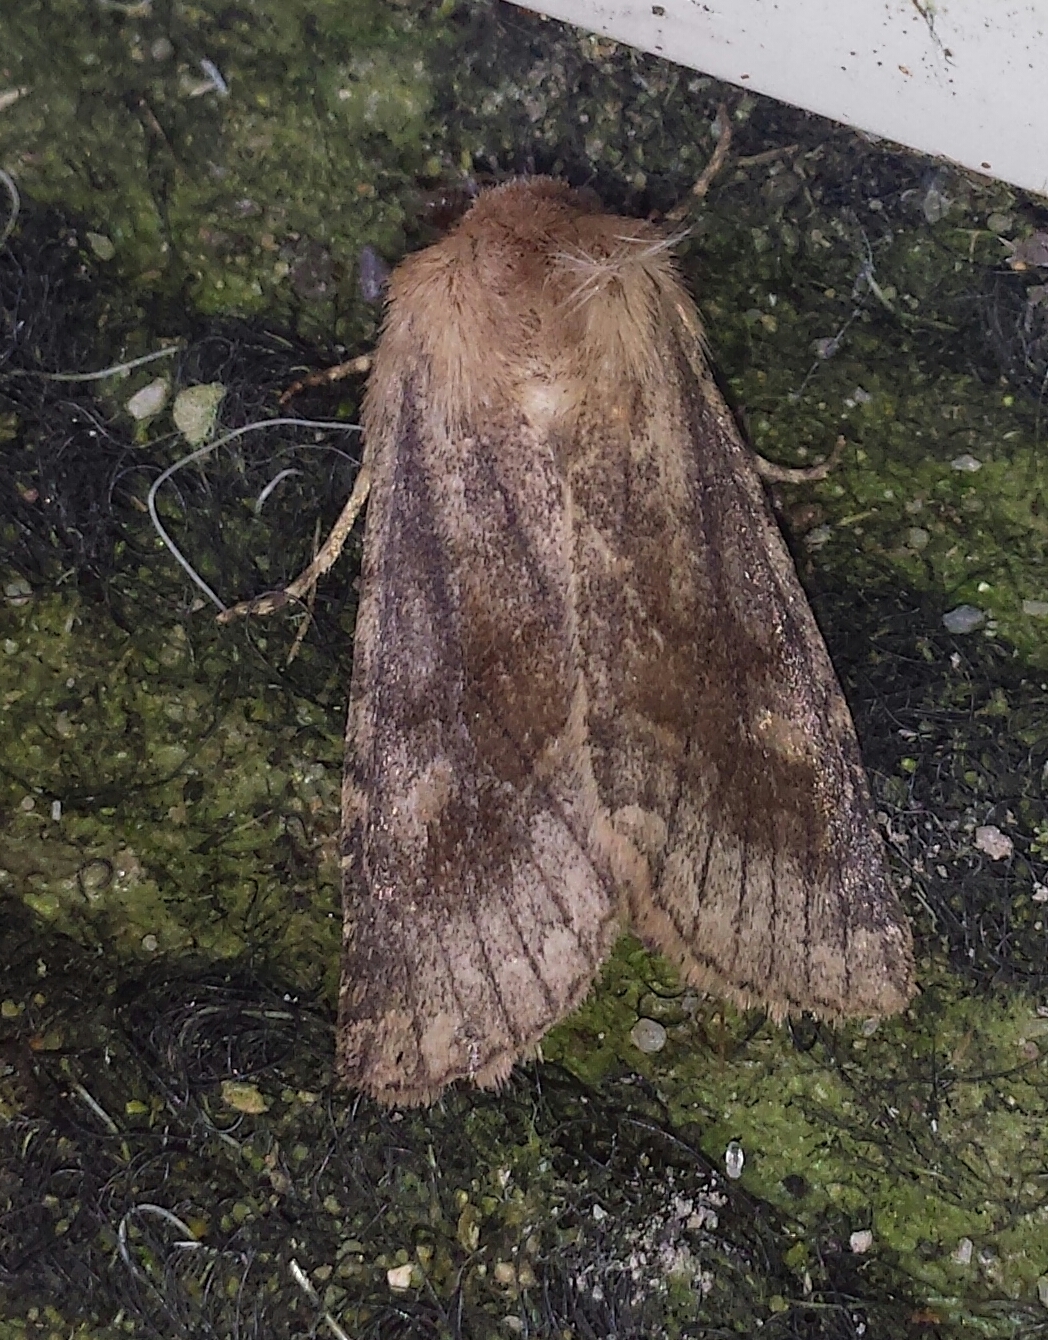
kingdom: Animalia
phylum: Arthropoda
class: Insecta
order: Lepidoptera
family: Noctuidae
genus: Nephelodes
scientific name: Nephelodes minians
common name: Bronzed cutworm
